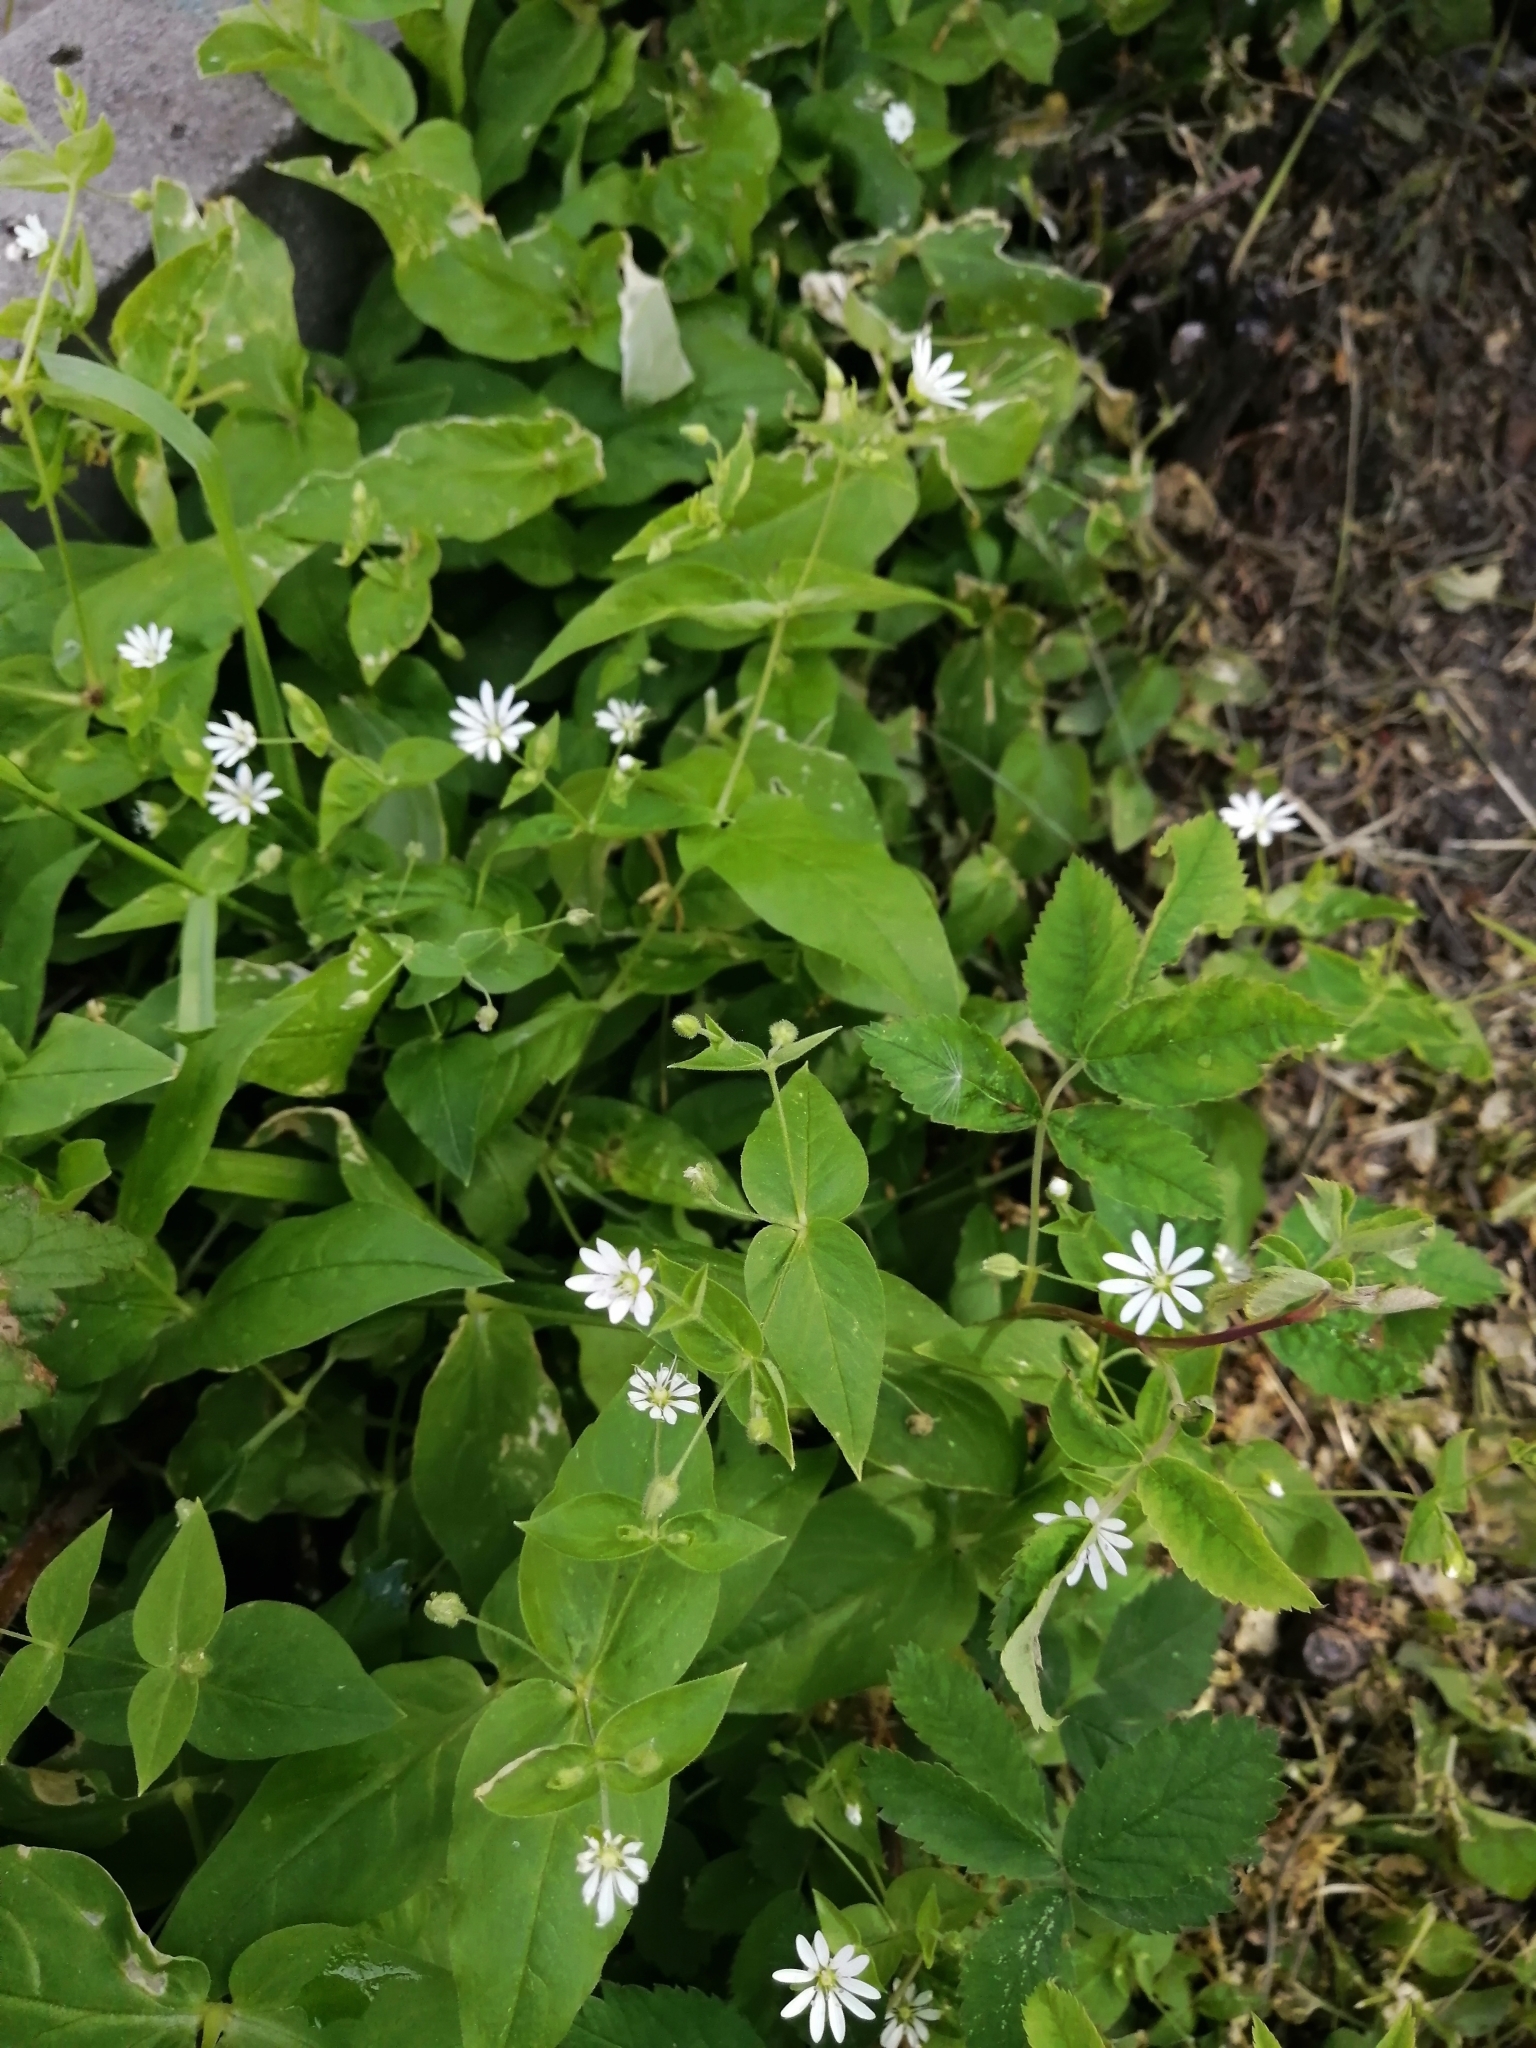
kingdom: Plantae
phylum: Tracheophyta
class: Magnoliopsida
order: Caryophyllales
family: Caryophyllaceae
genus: Stellaria
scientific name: Stellaria bungeana
